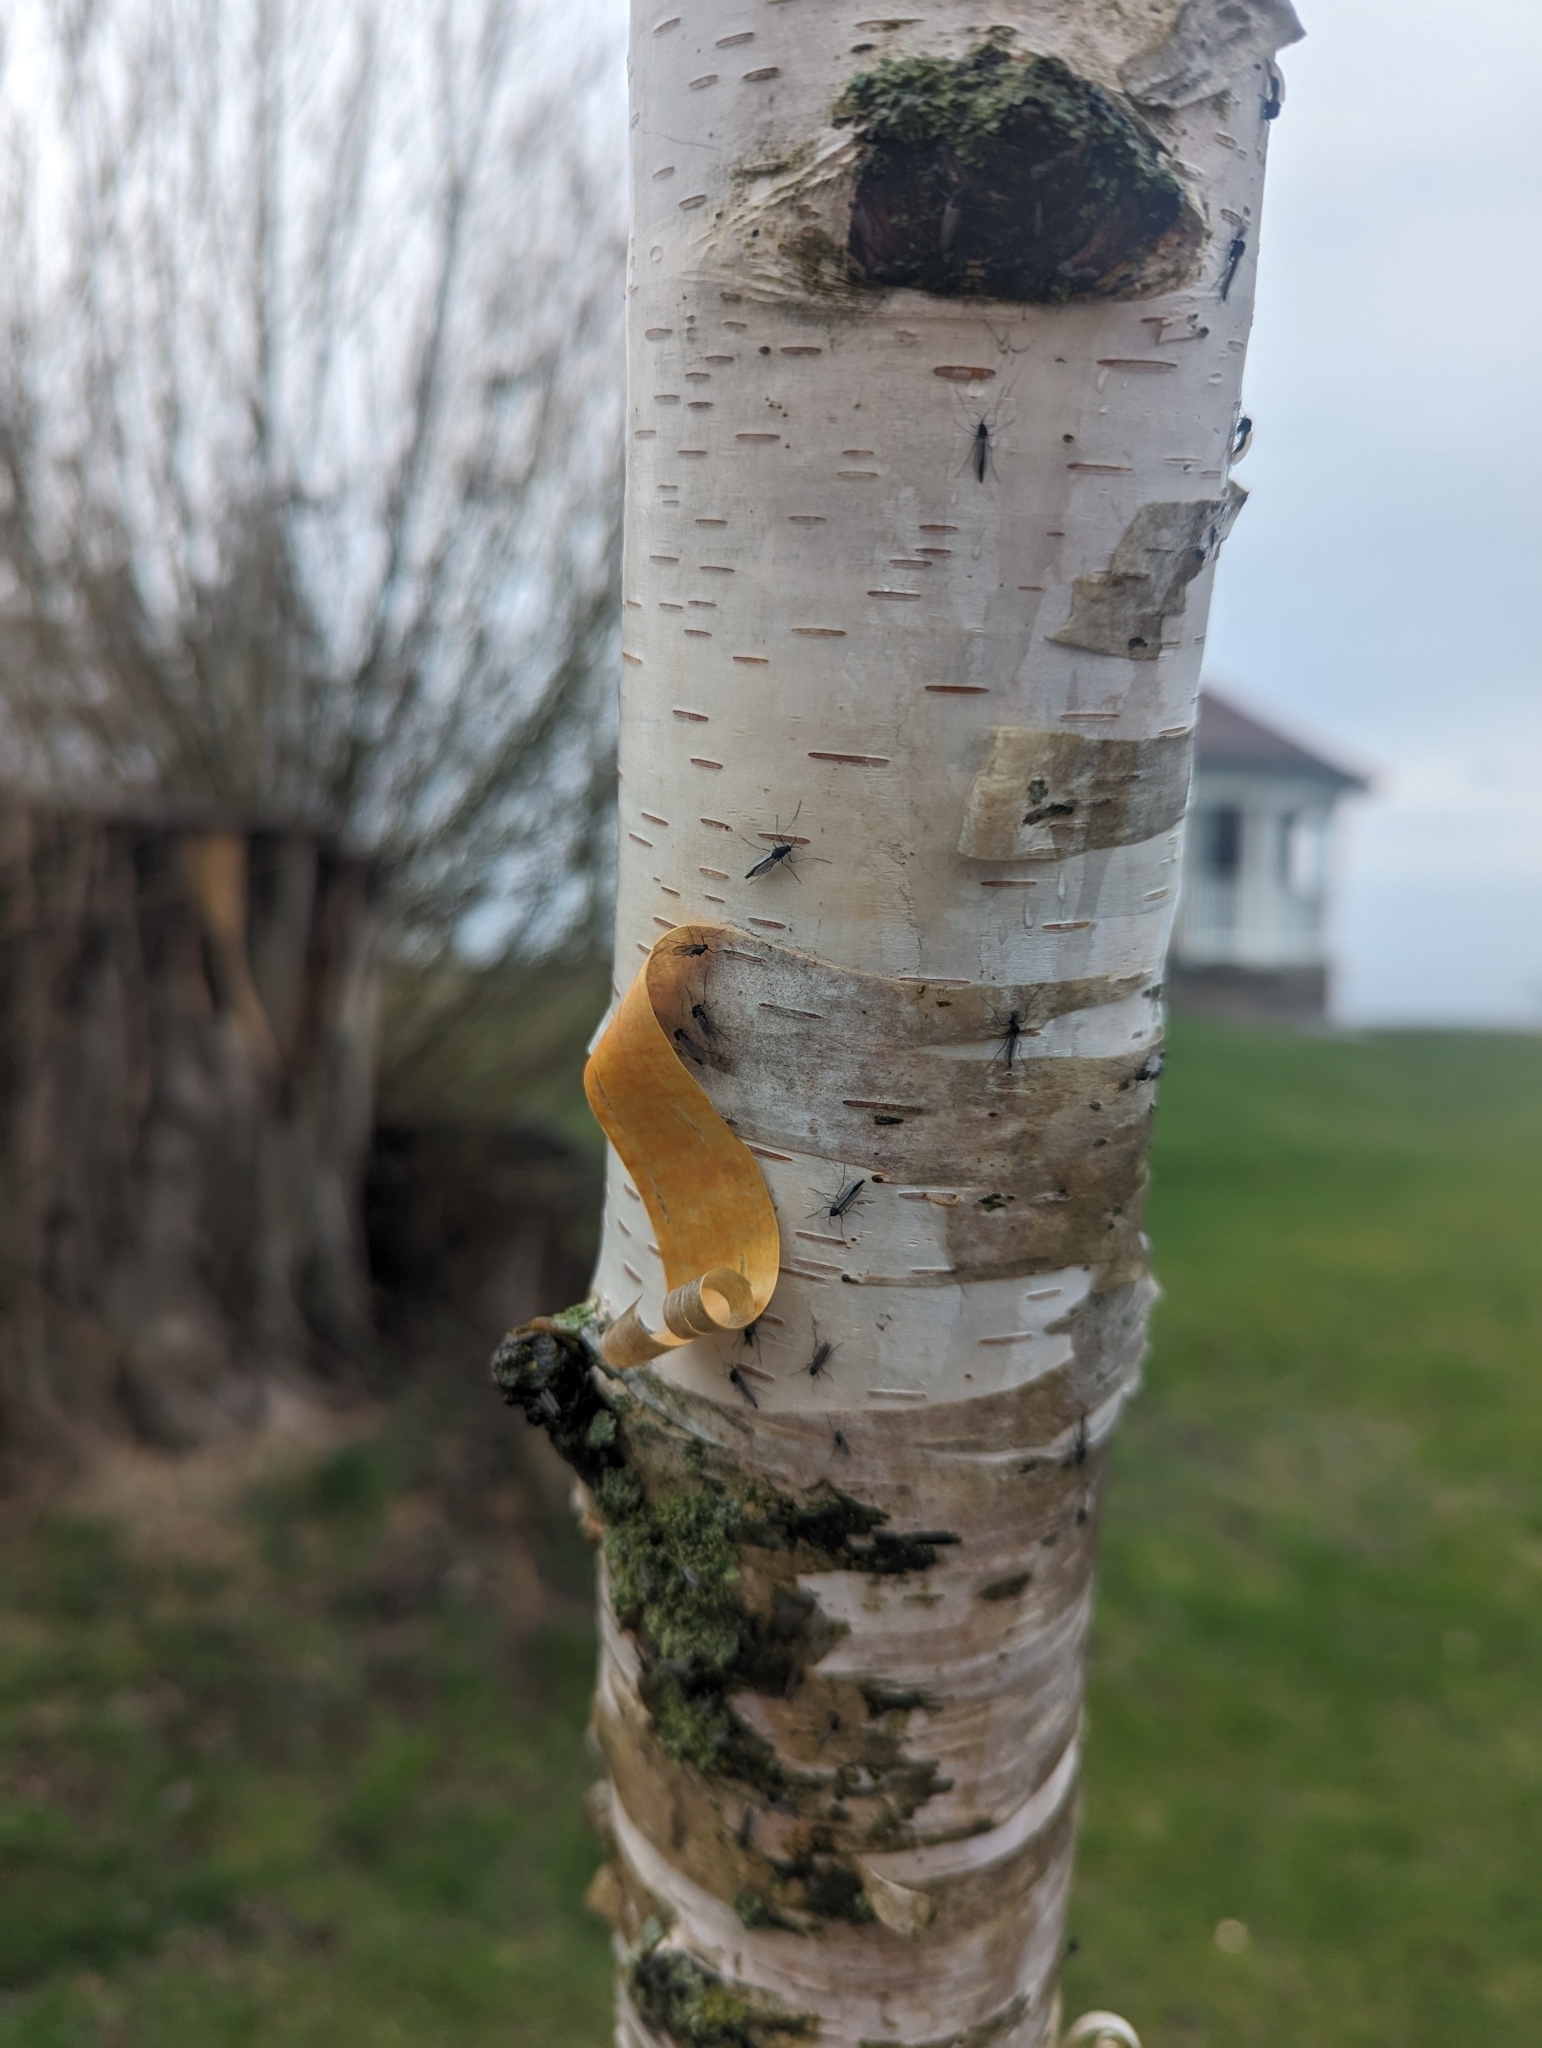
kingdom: Plantae
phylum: Tracheophyta
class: Magnoliopsida
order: Fagales
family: Betulaceae
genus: Betula
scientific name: Betula papyrifera
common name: Paper birch
